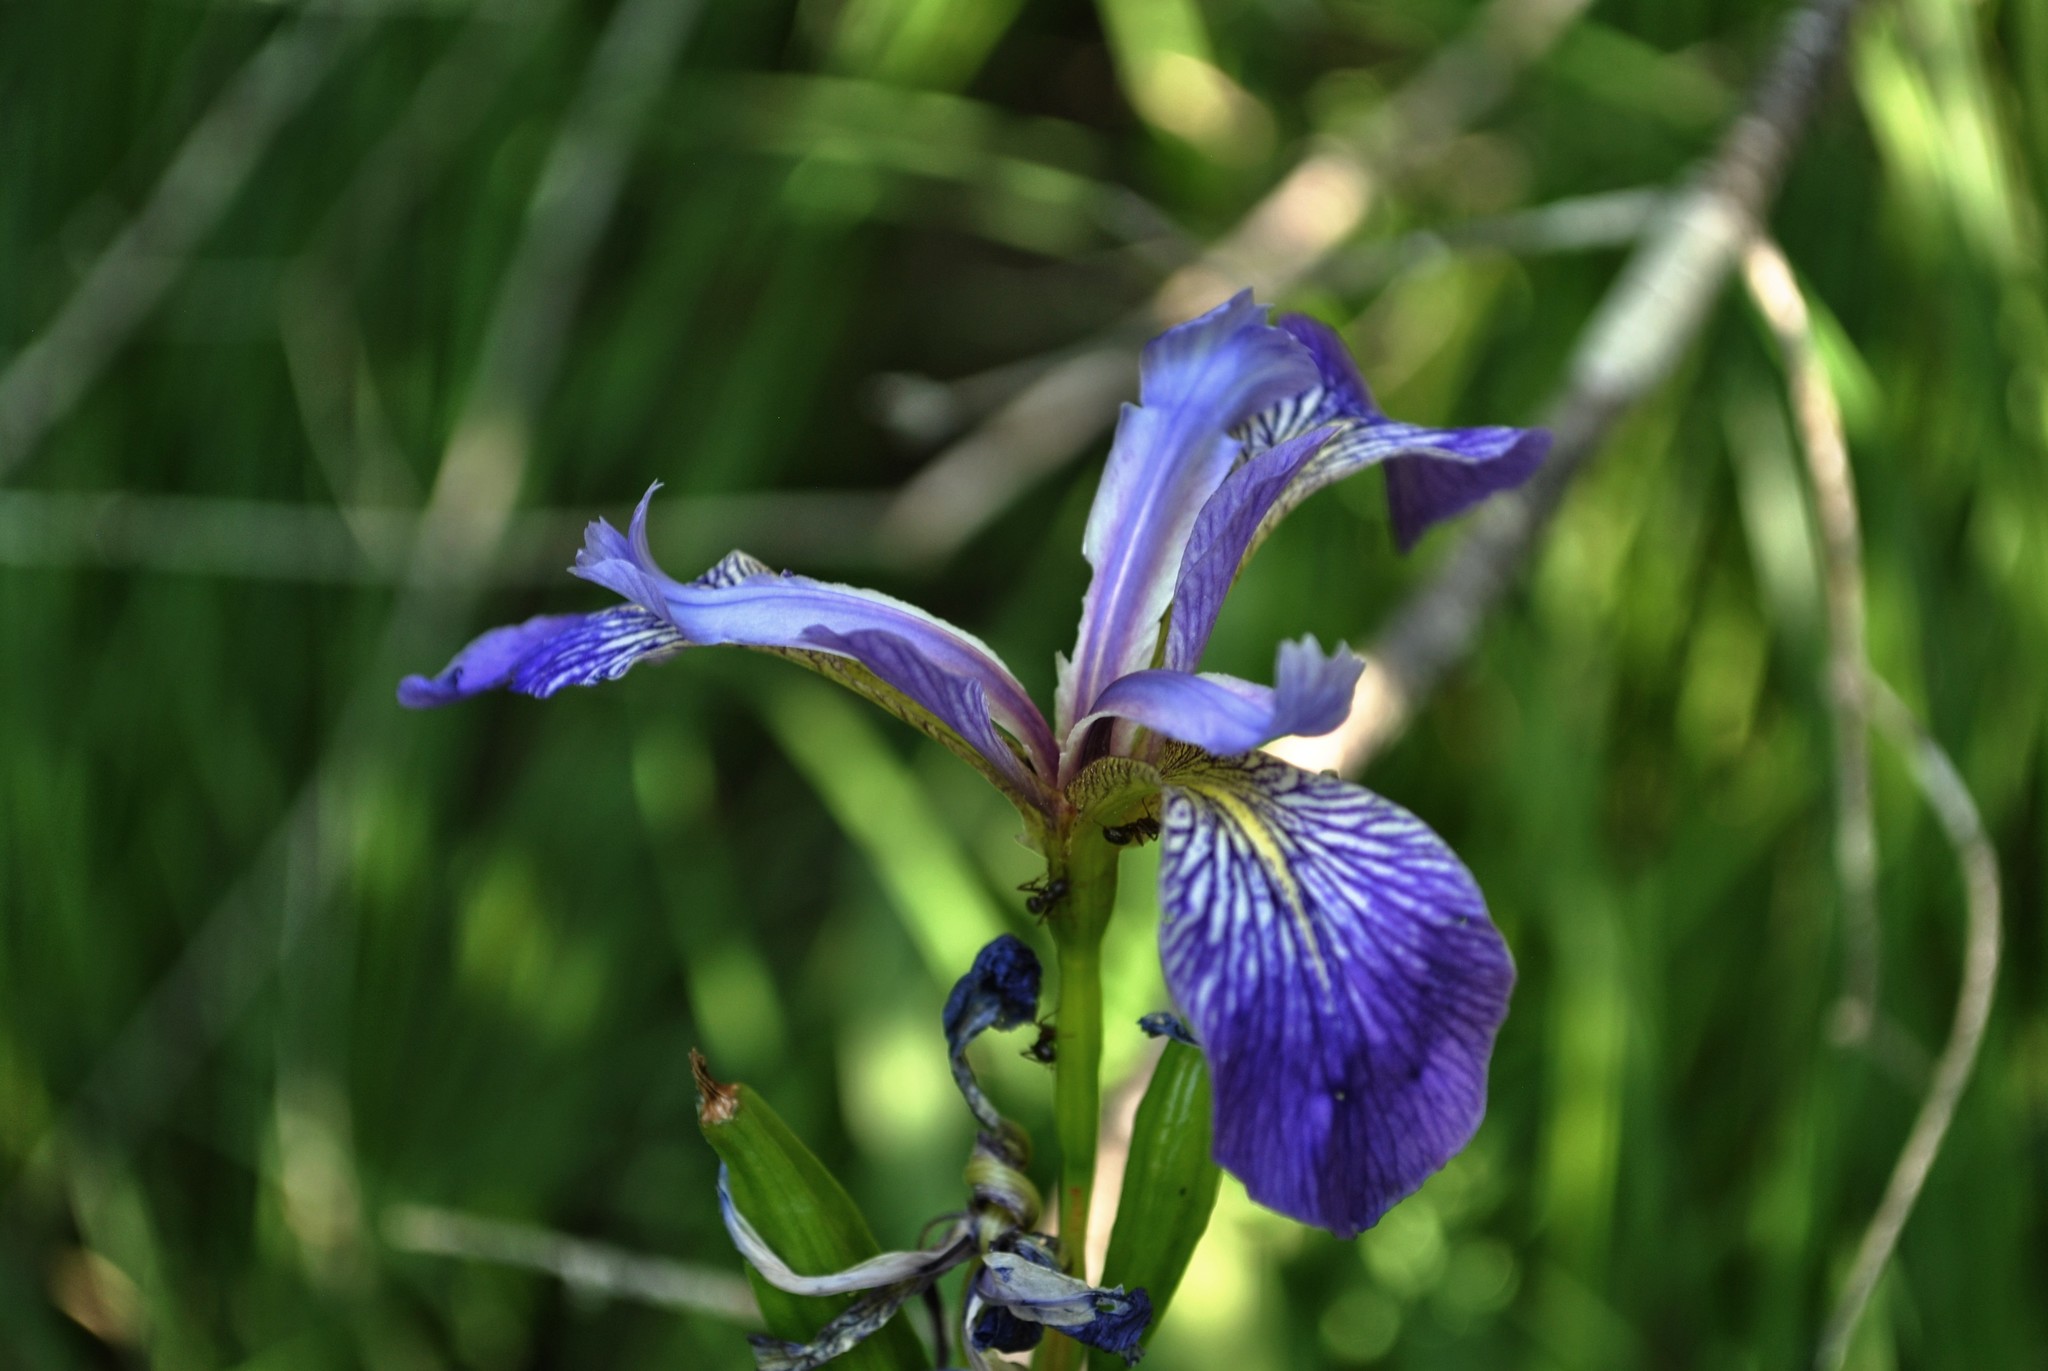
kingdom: Plantae
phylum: Tracheophyta
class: Liliopsida
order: Asparagales
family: Iridaceae
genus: Iris
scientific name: Iris versicolor
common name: Purple iris
